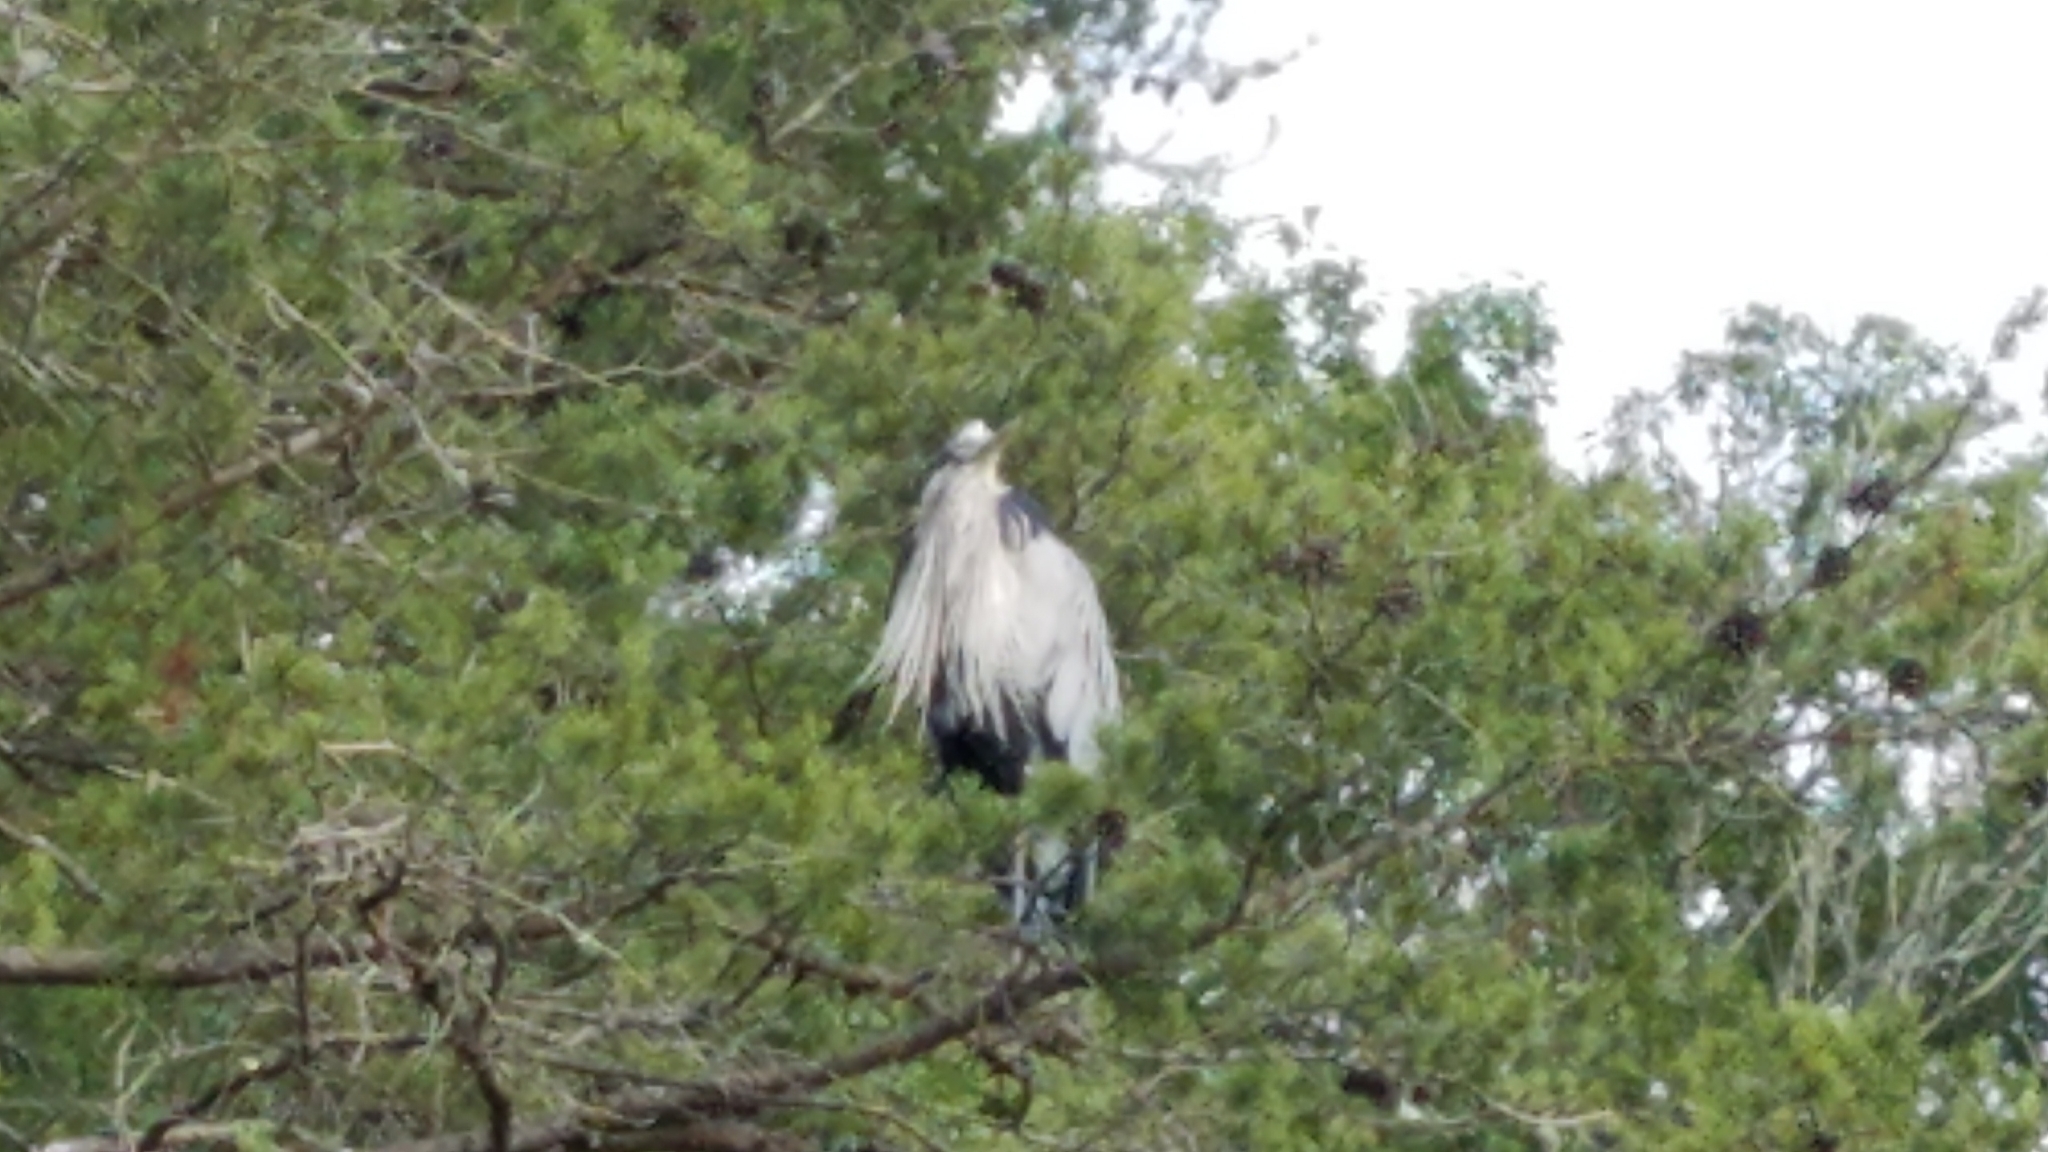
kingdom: Animalia
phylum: Chordata
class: Aves
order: Pelecaniformes
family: Ardeidae
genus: Ardea
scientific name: Ardea herodias
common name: Great blue heron
